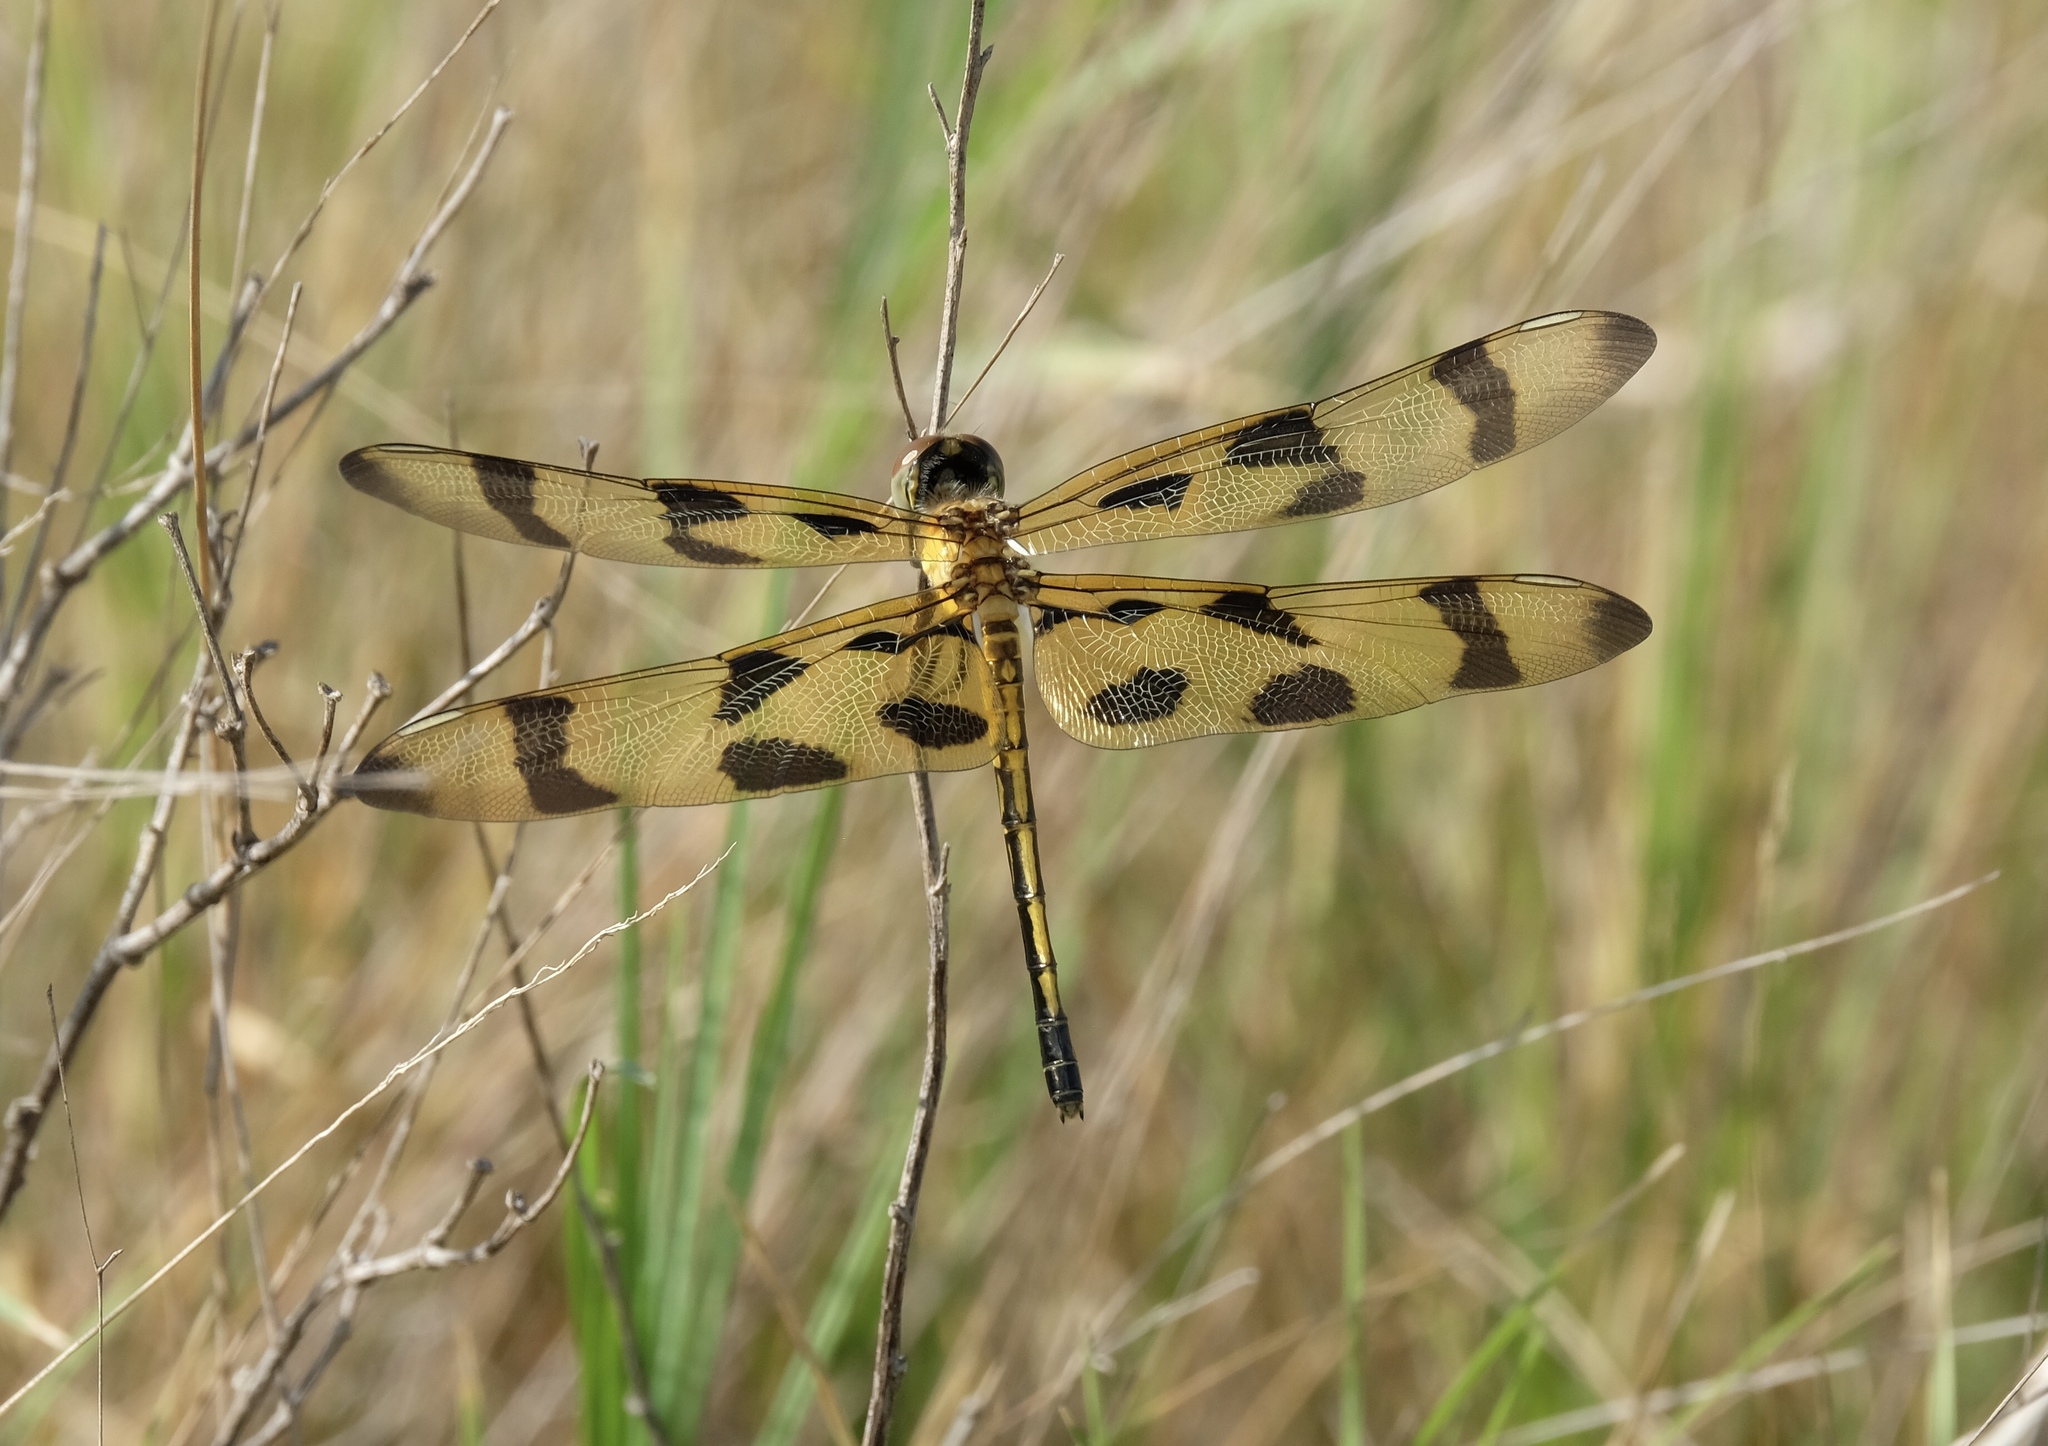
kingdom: Animalia
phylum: Arthropoda
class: Insecta
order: Odonata
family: Libellulidae
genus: Celithemis
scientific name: Celithemis eponina
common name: Halloween pennant
